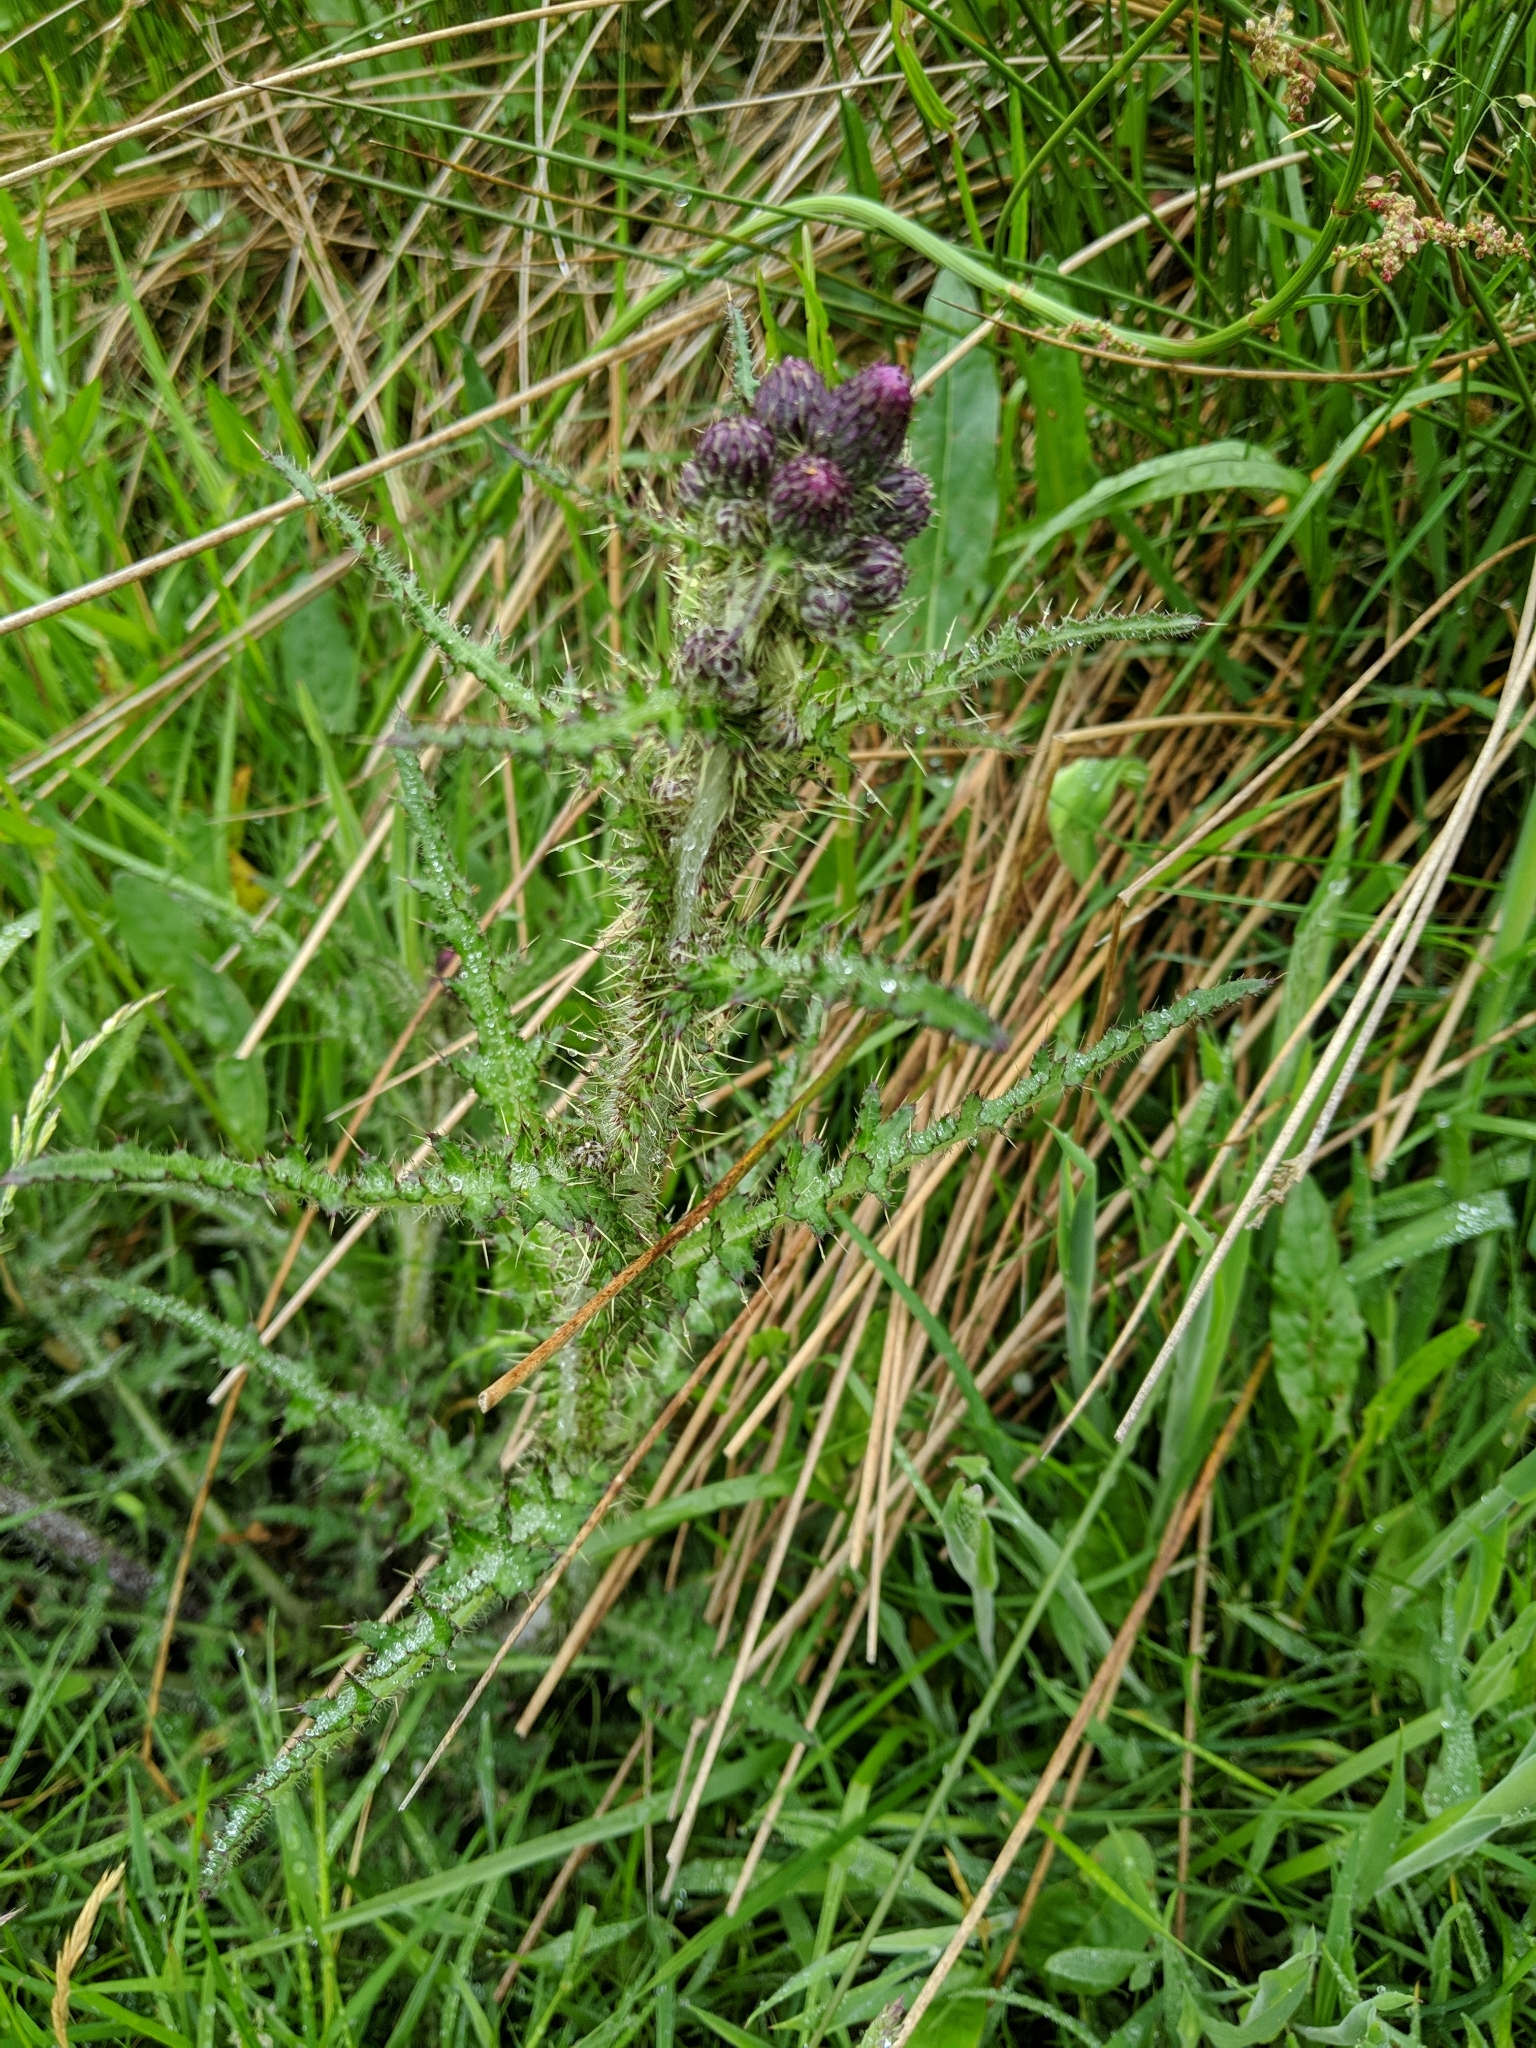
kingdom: Plantae
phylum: Tracheophyta
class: Magnoliopsida
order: Asterales
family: Asteraceae
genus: Cirsium
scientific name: Cirsium palustre
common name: Marsh thistle
